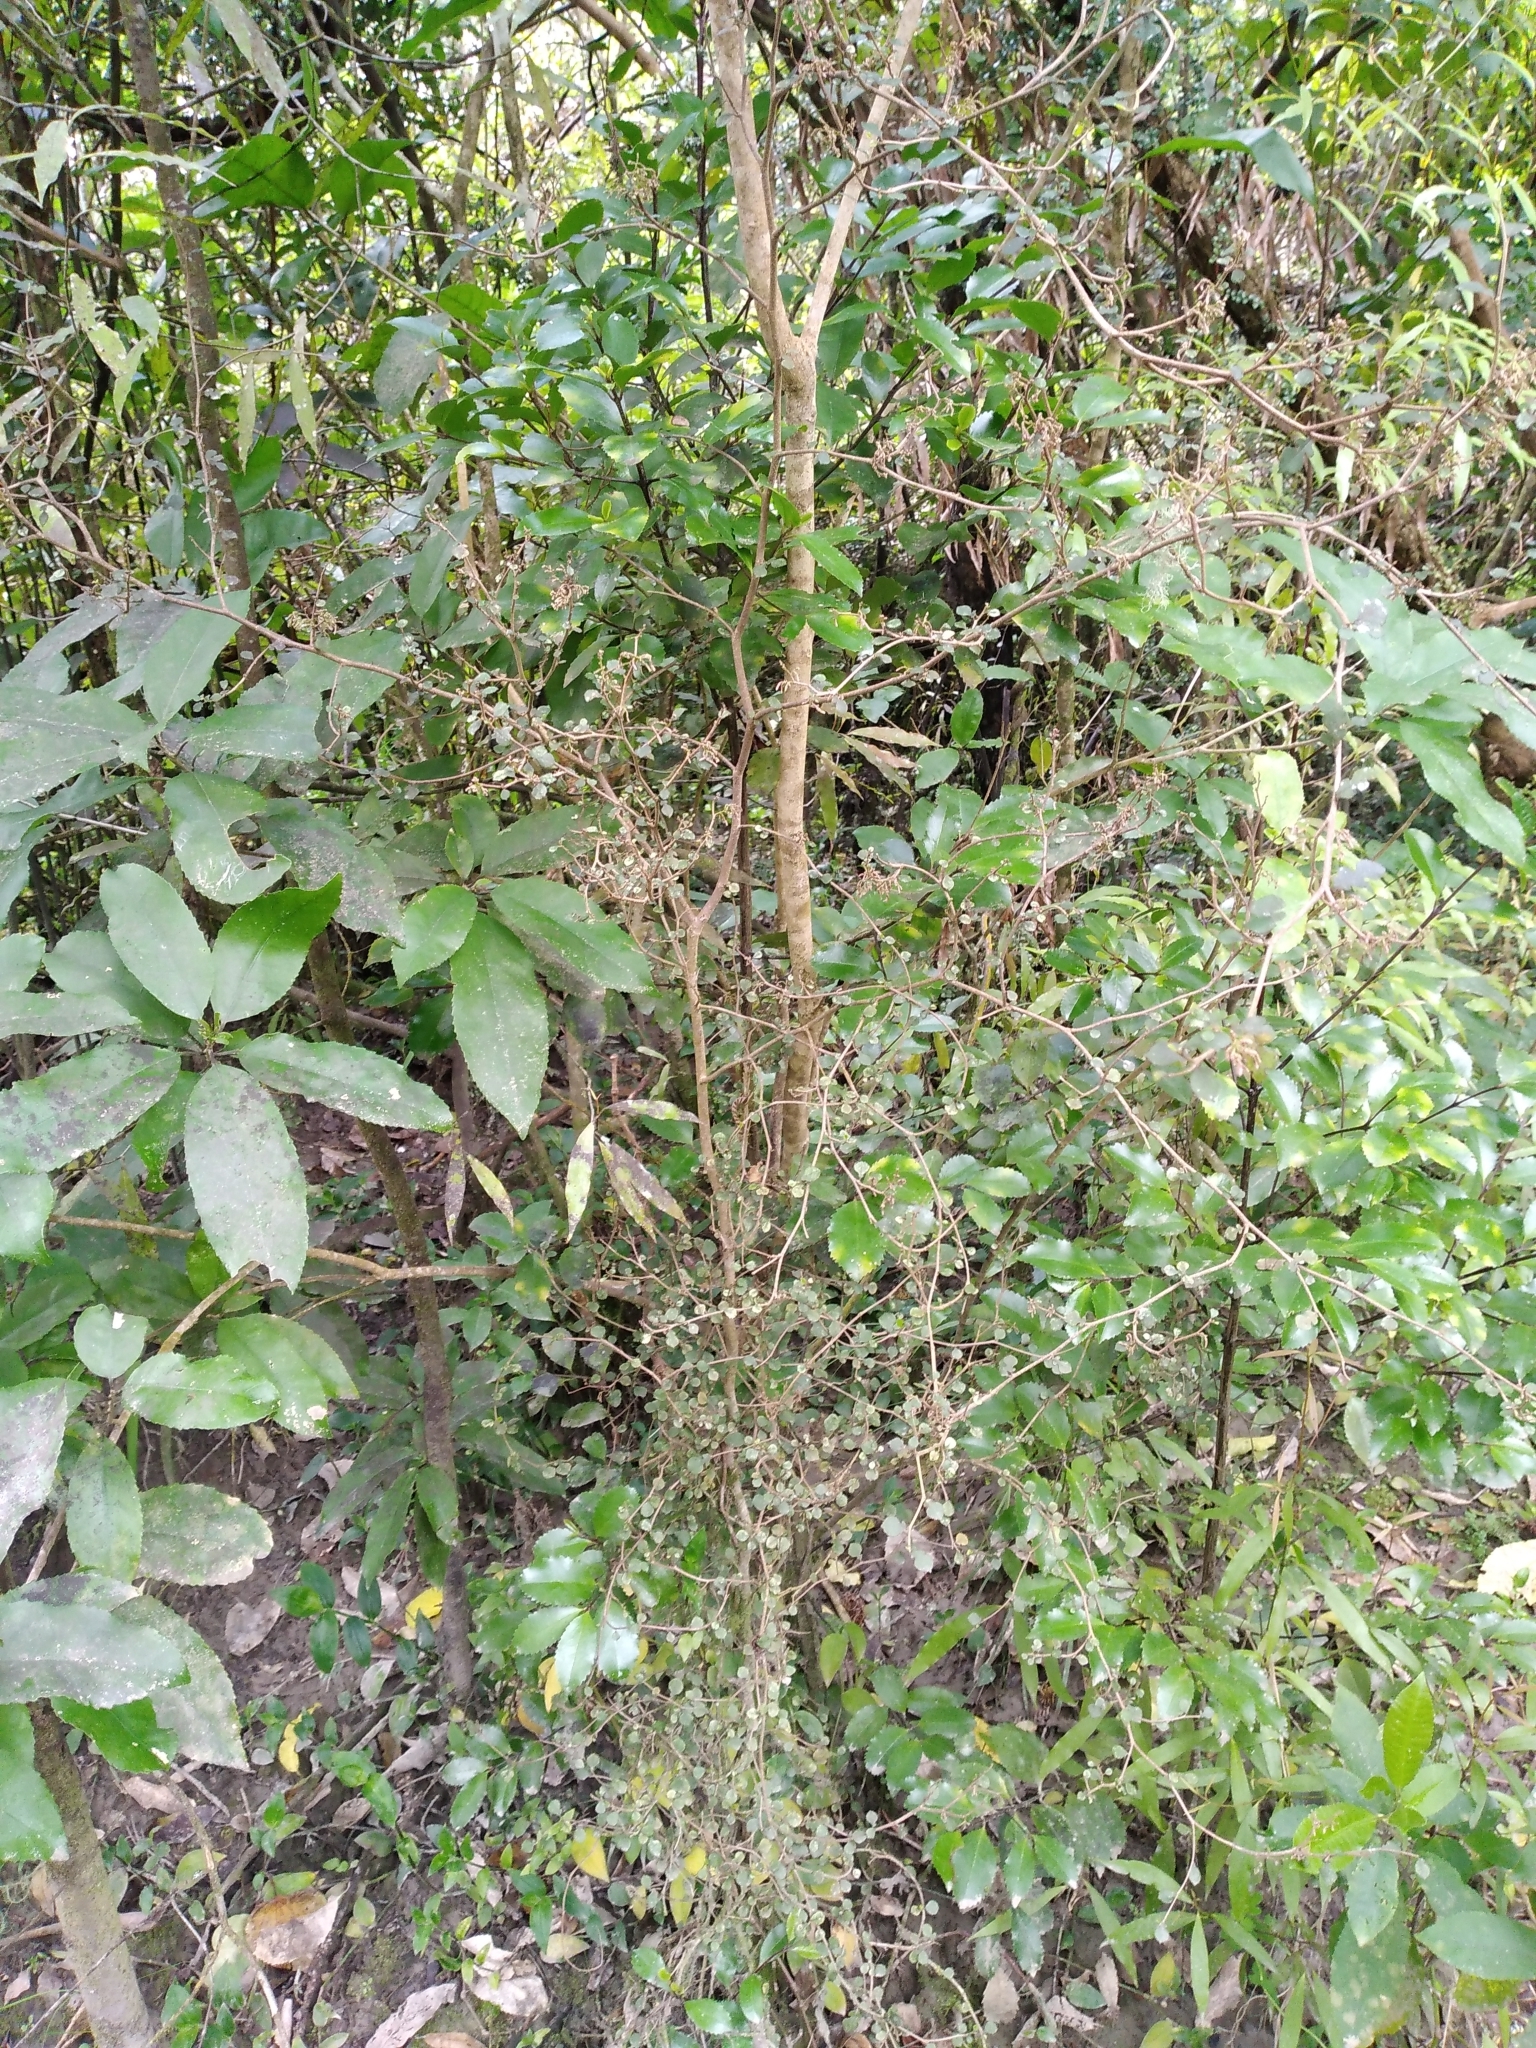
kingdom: Plantae
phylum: Tracheophyta
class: Magnoliopsida
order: Rosales
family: Moraceae
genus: Paratrophis
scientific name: Paratrophis microphylla
